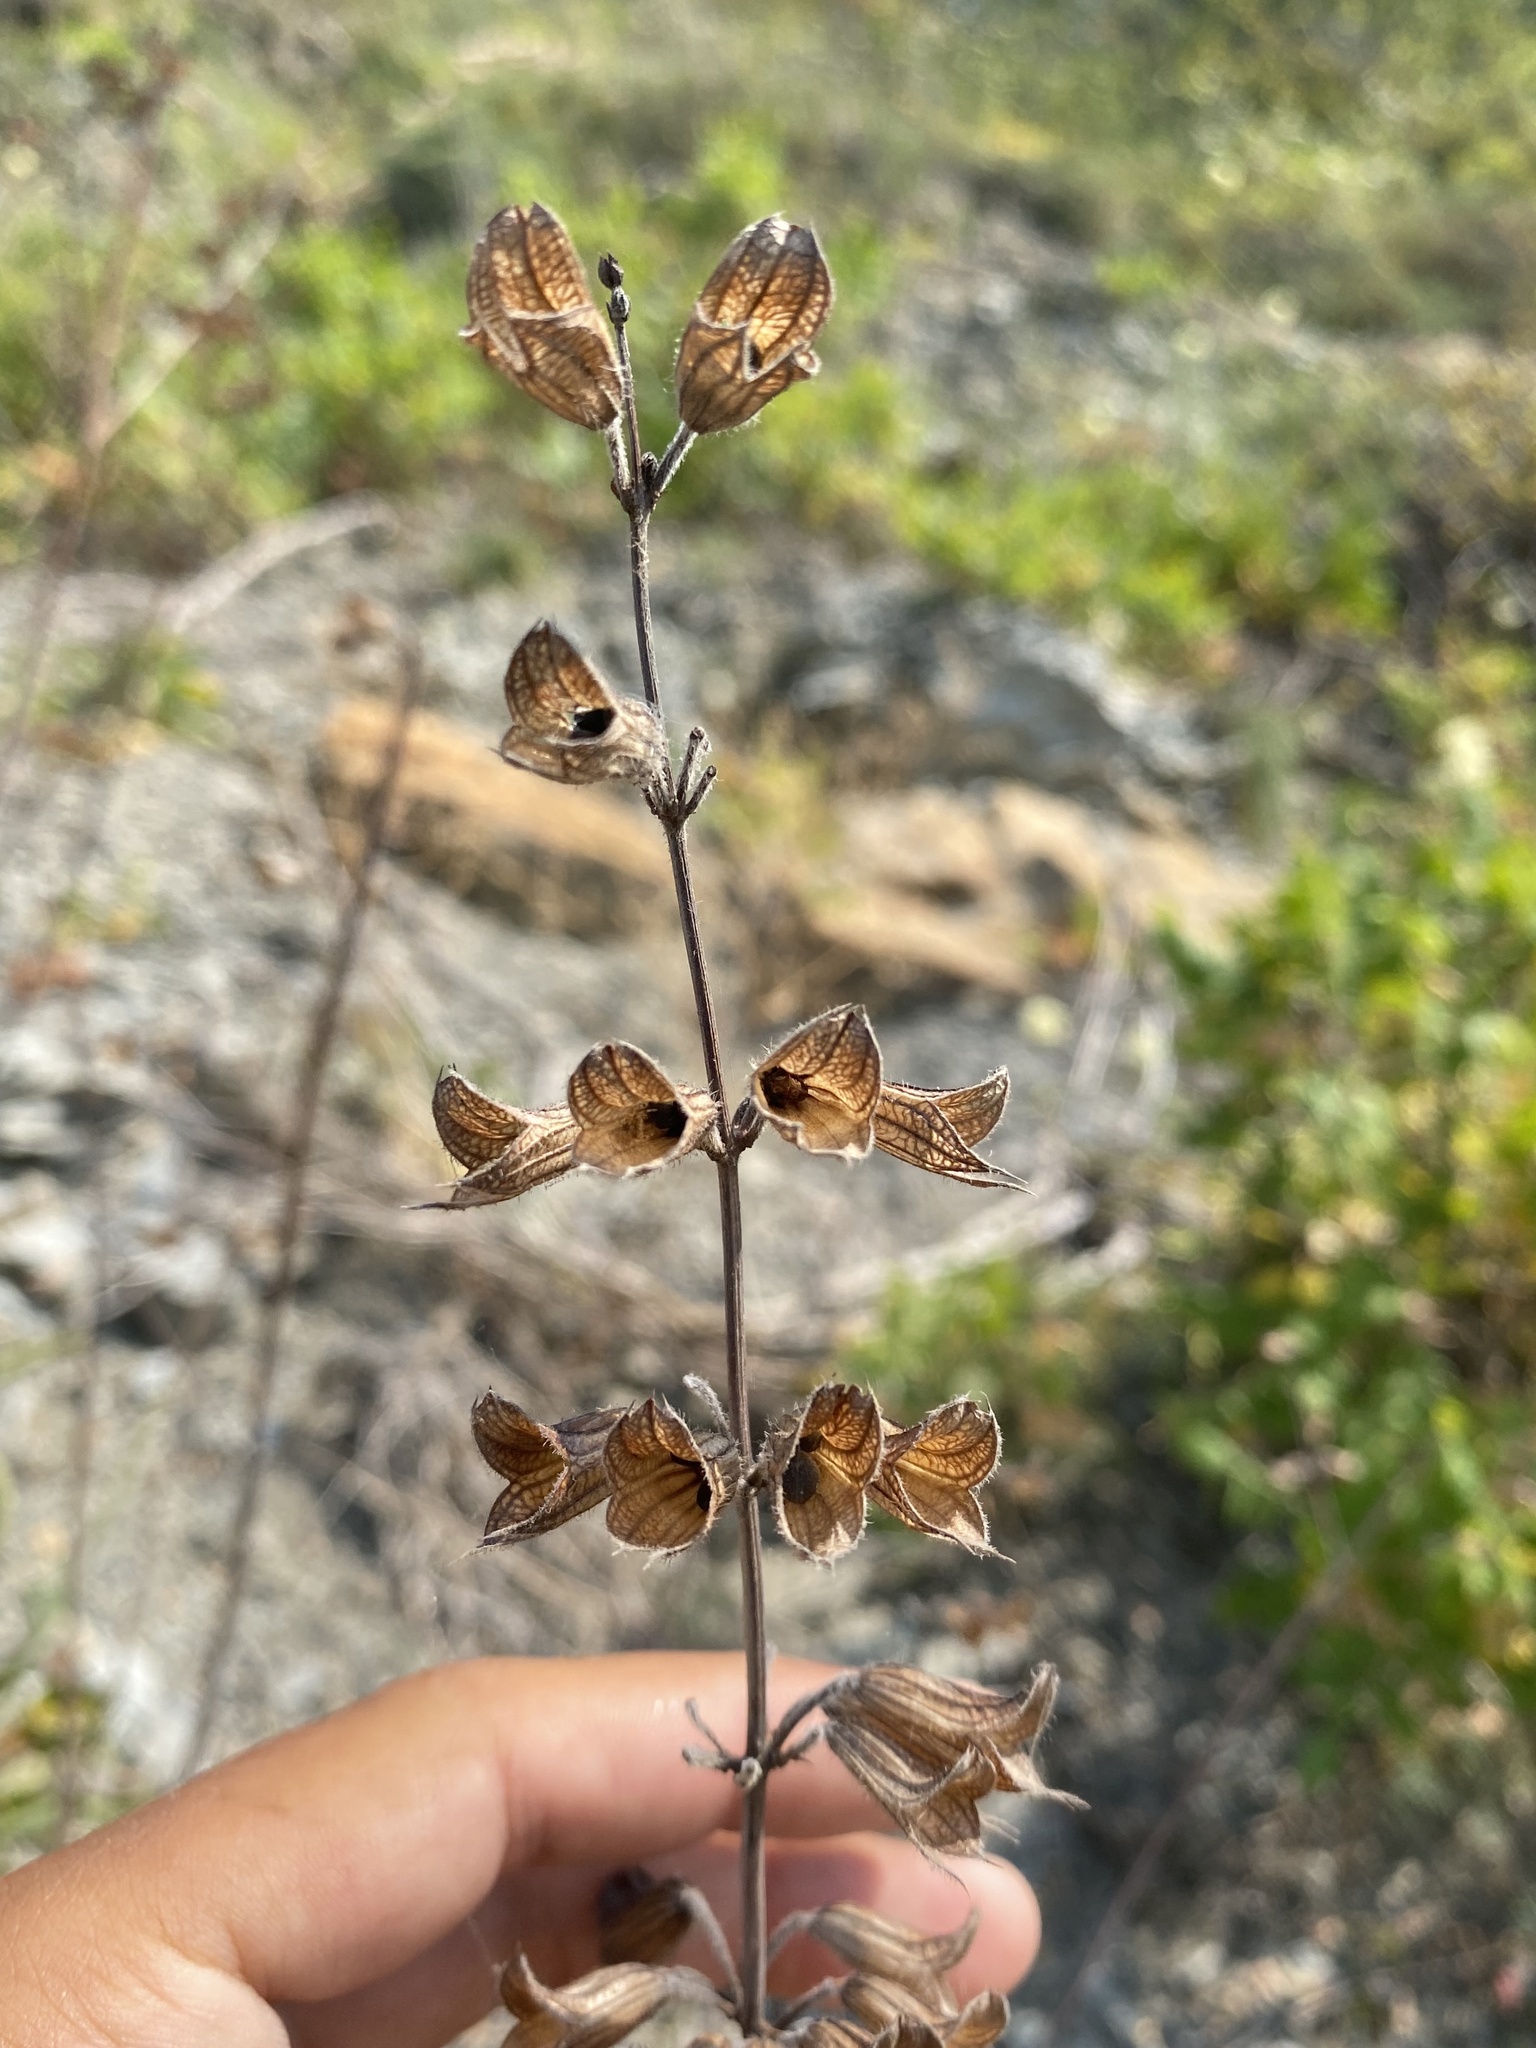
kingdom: Plantae
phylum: Tracheophyta
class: Magnoliopsida
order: Lamiales
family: Lamiaceae
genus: Salvia
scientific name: Salvia ringens
